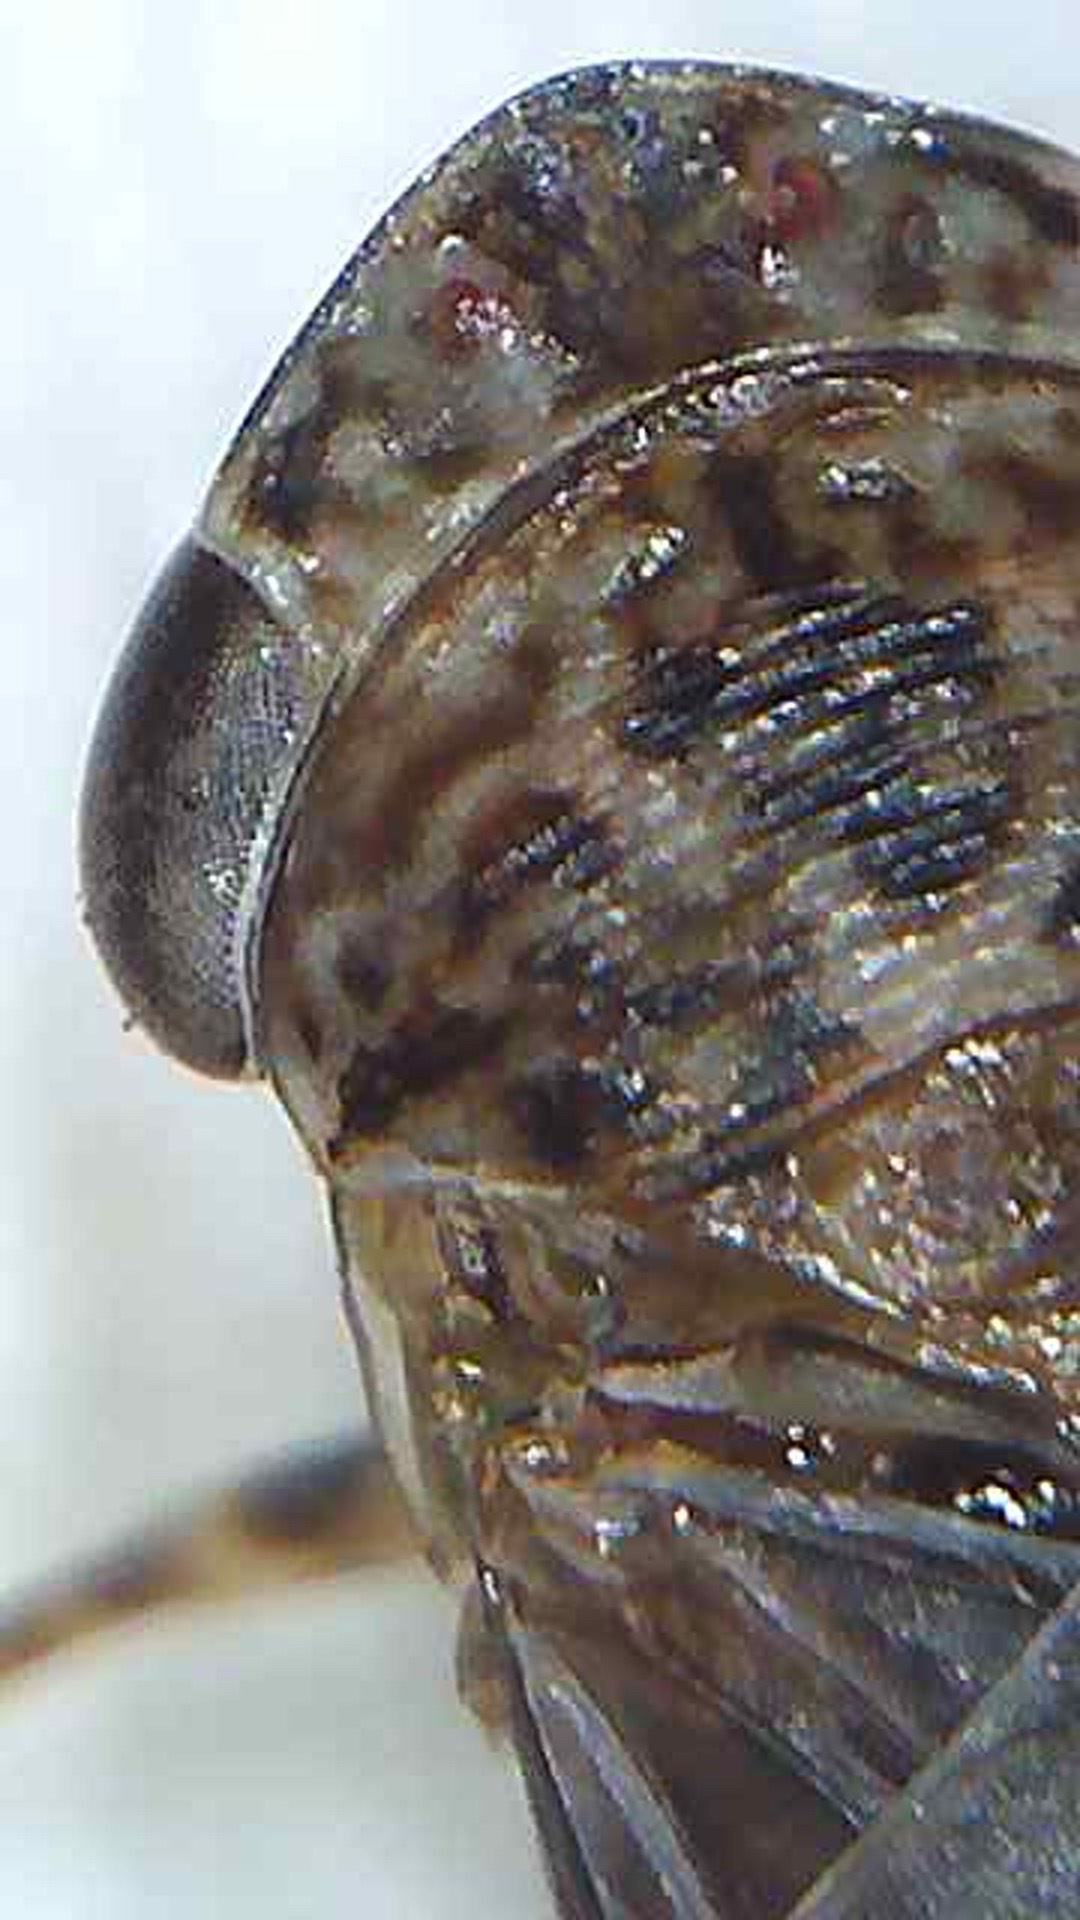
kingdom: Animalia
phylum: Arthropoda
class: Insecta
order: Strepsiptera
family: Halictophagidae
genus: Coriophagus
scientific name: Coriophagus casui
